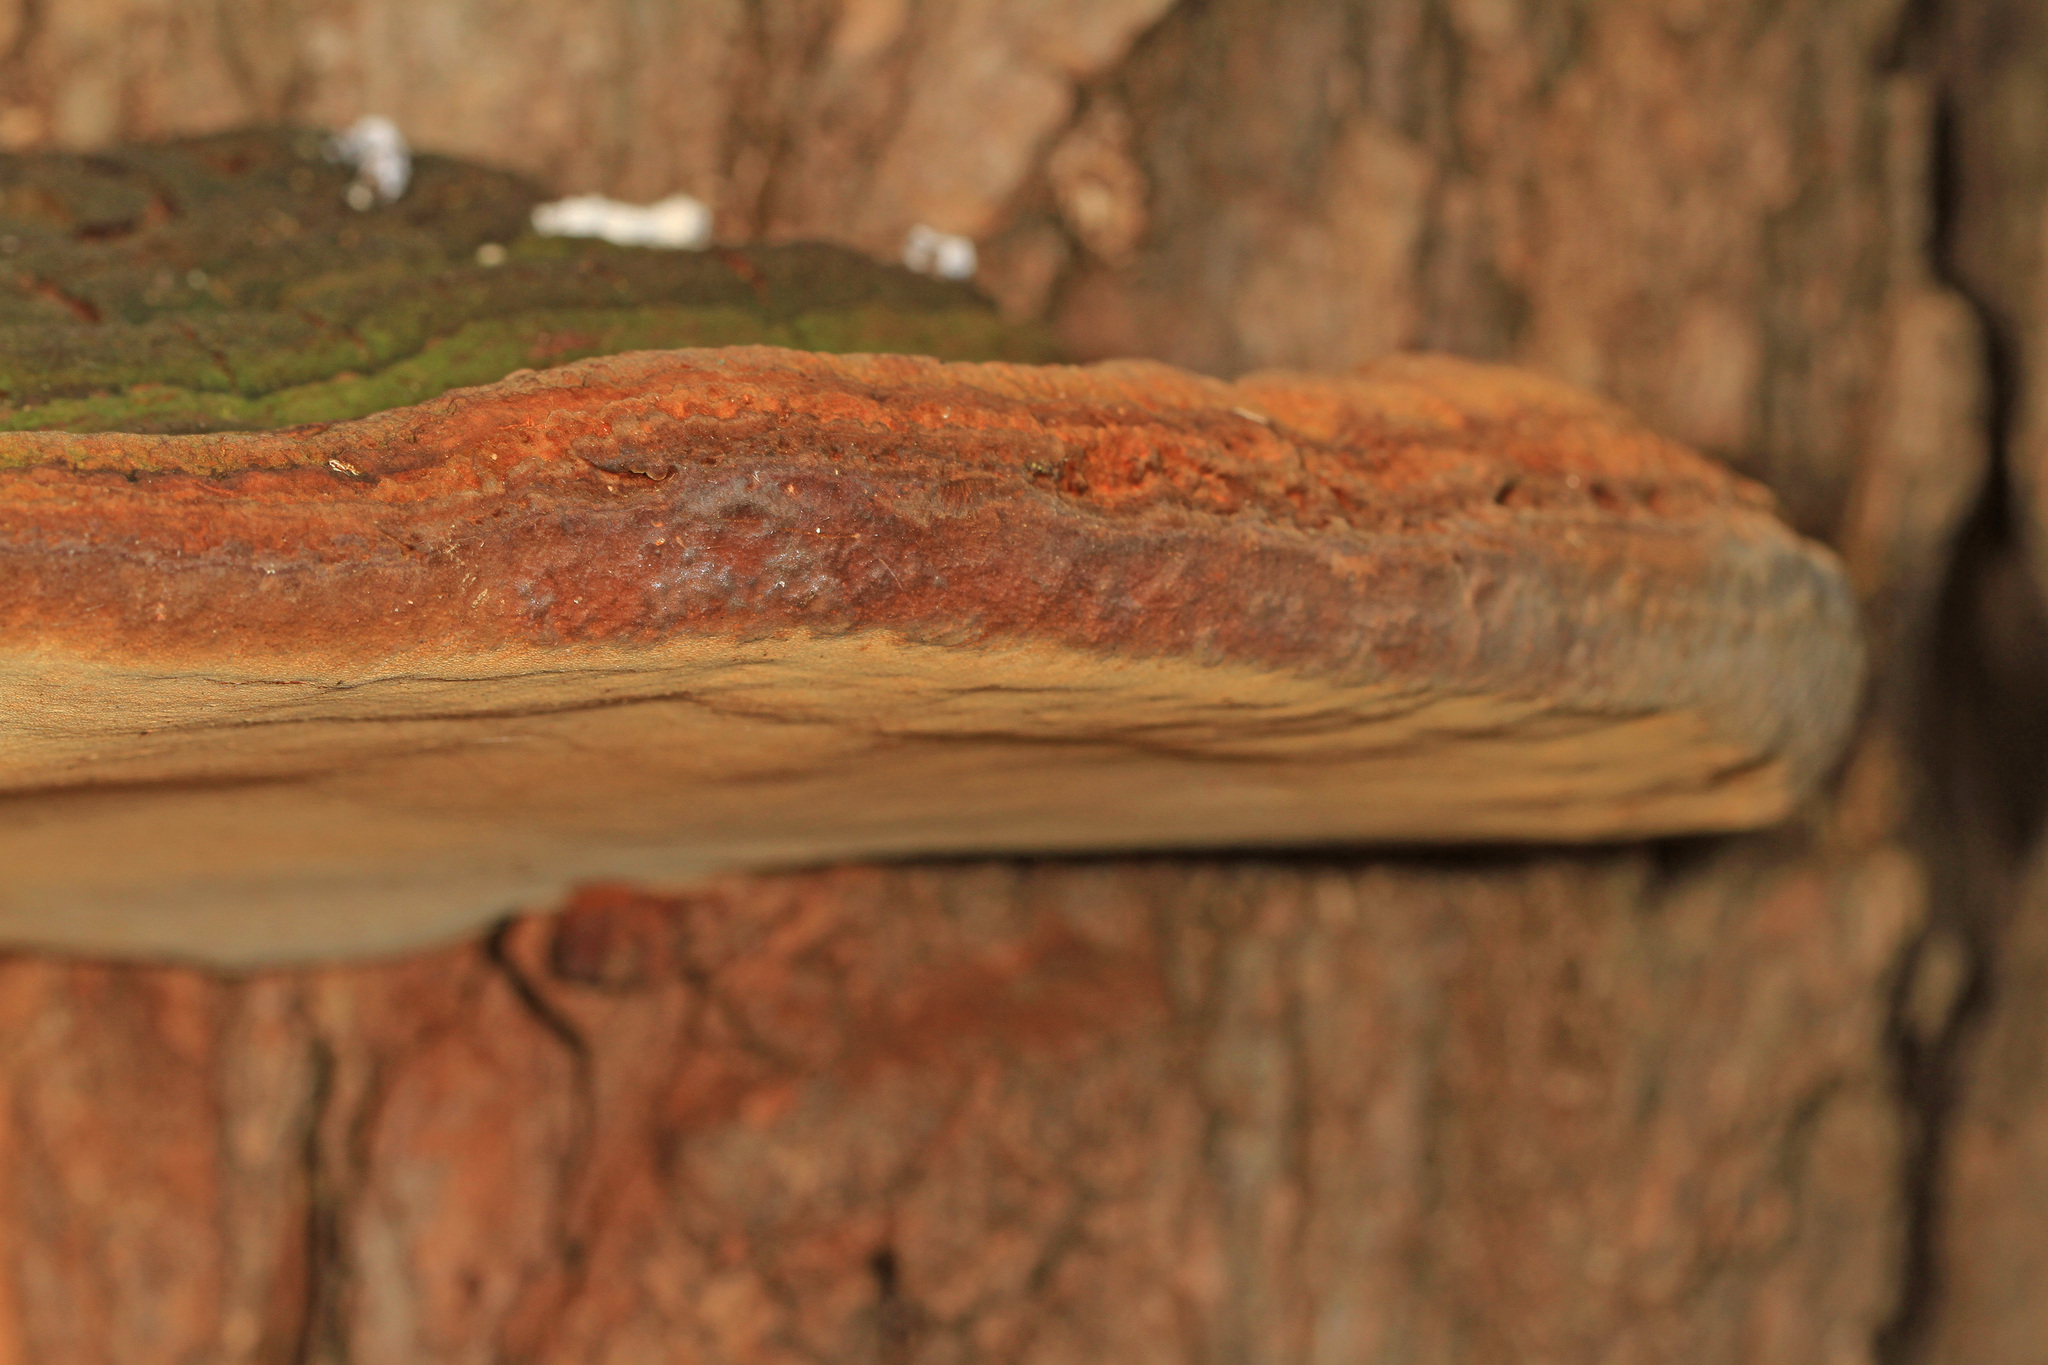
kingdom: Fungi
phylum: Basidiomycota
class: Agaricomycetes
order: Hymenochaetales
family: Hymenochaetaceae
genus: Phellinus
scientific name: Phellinus robiniae
